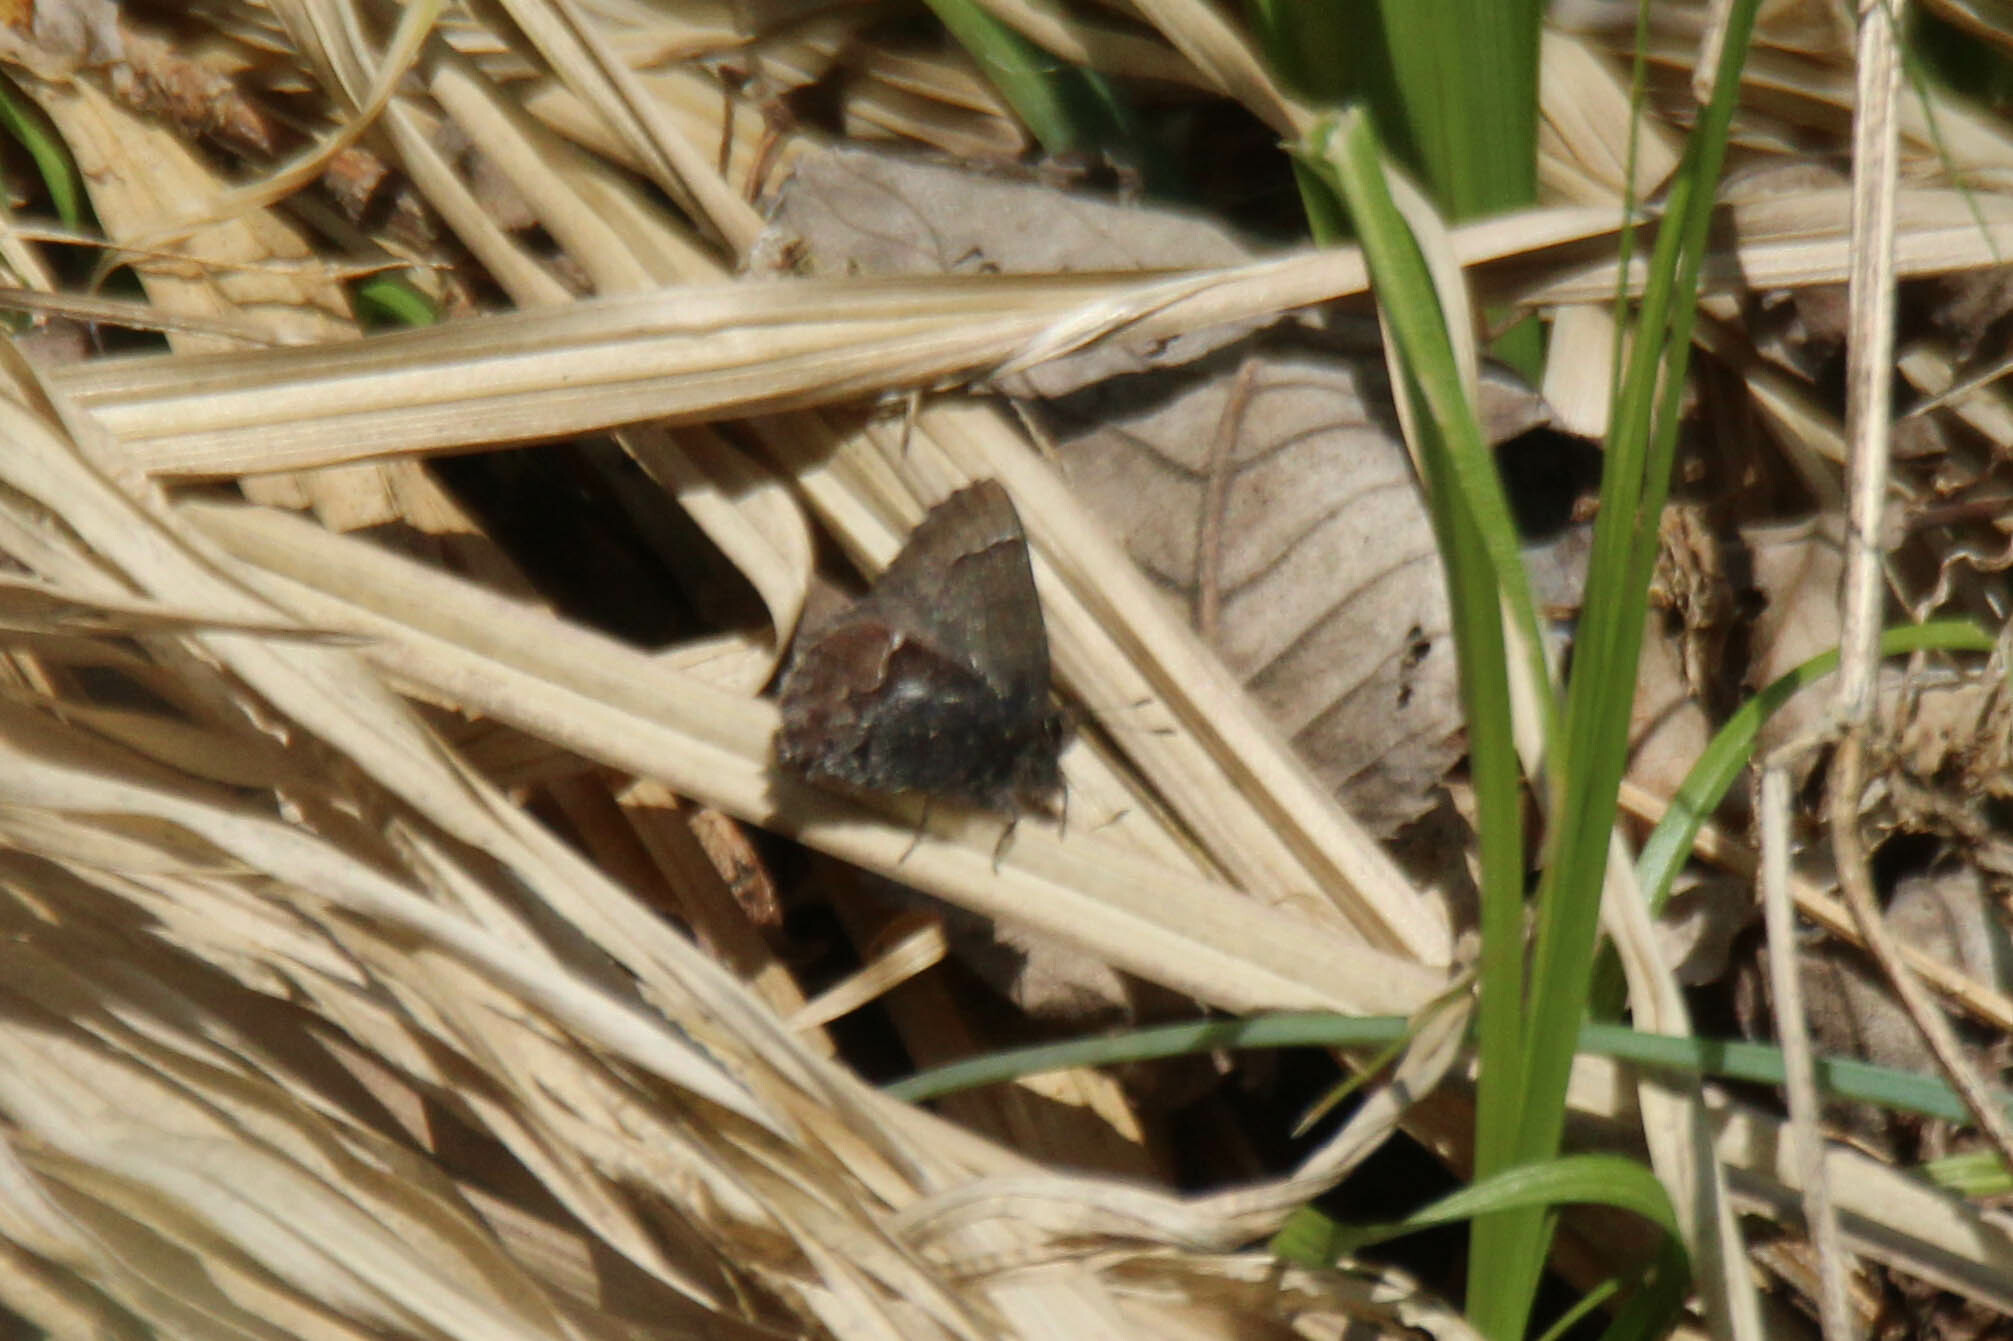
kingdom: Animalia
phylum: Arthropoda
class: Insecta
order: Lepidoptera
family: Lycaenidae
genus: Ginzia
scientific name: Ginzia Ahlbergia frivaldszkyi
